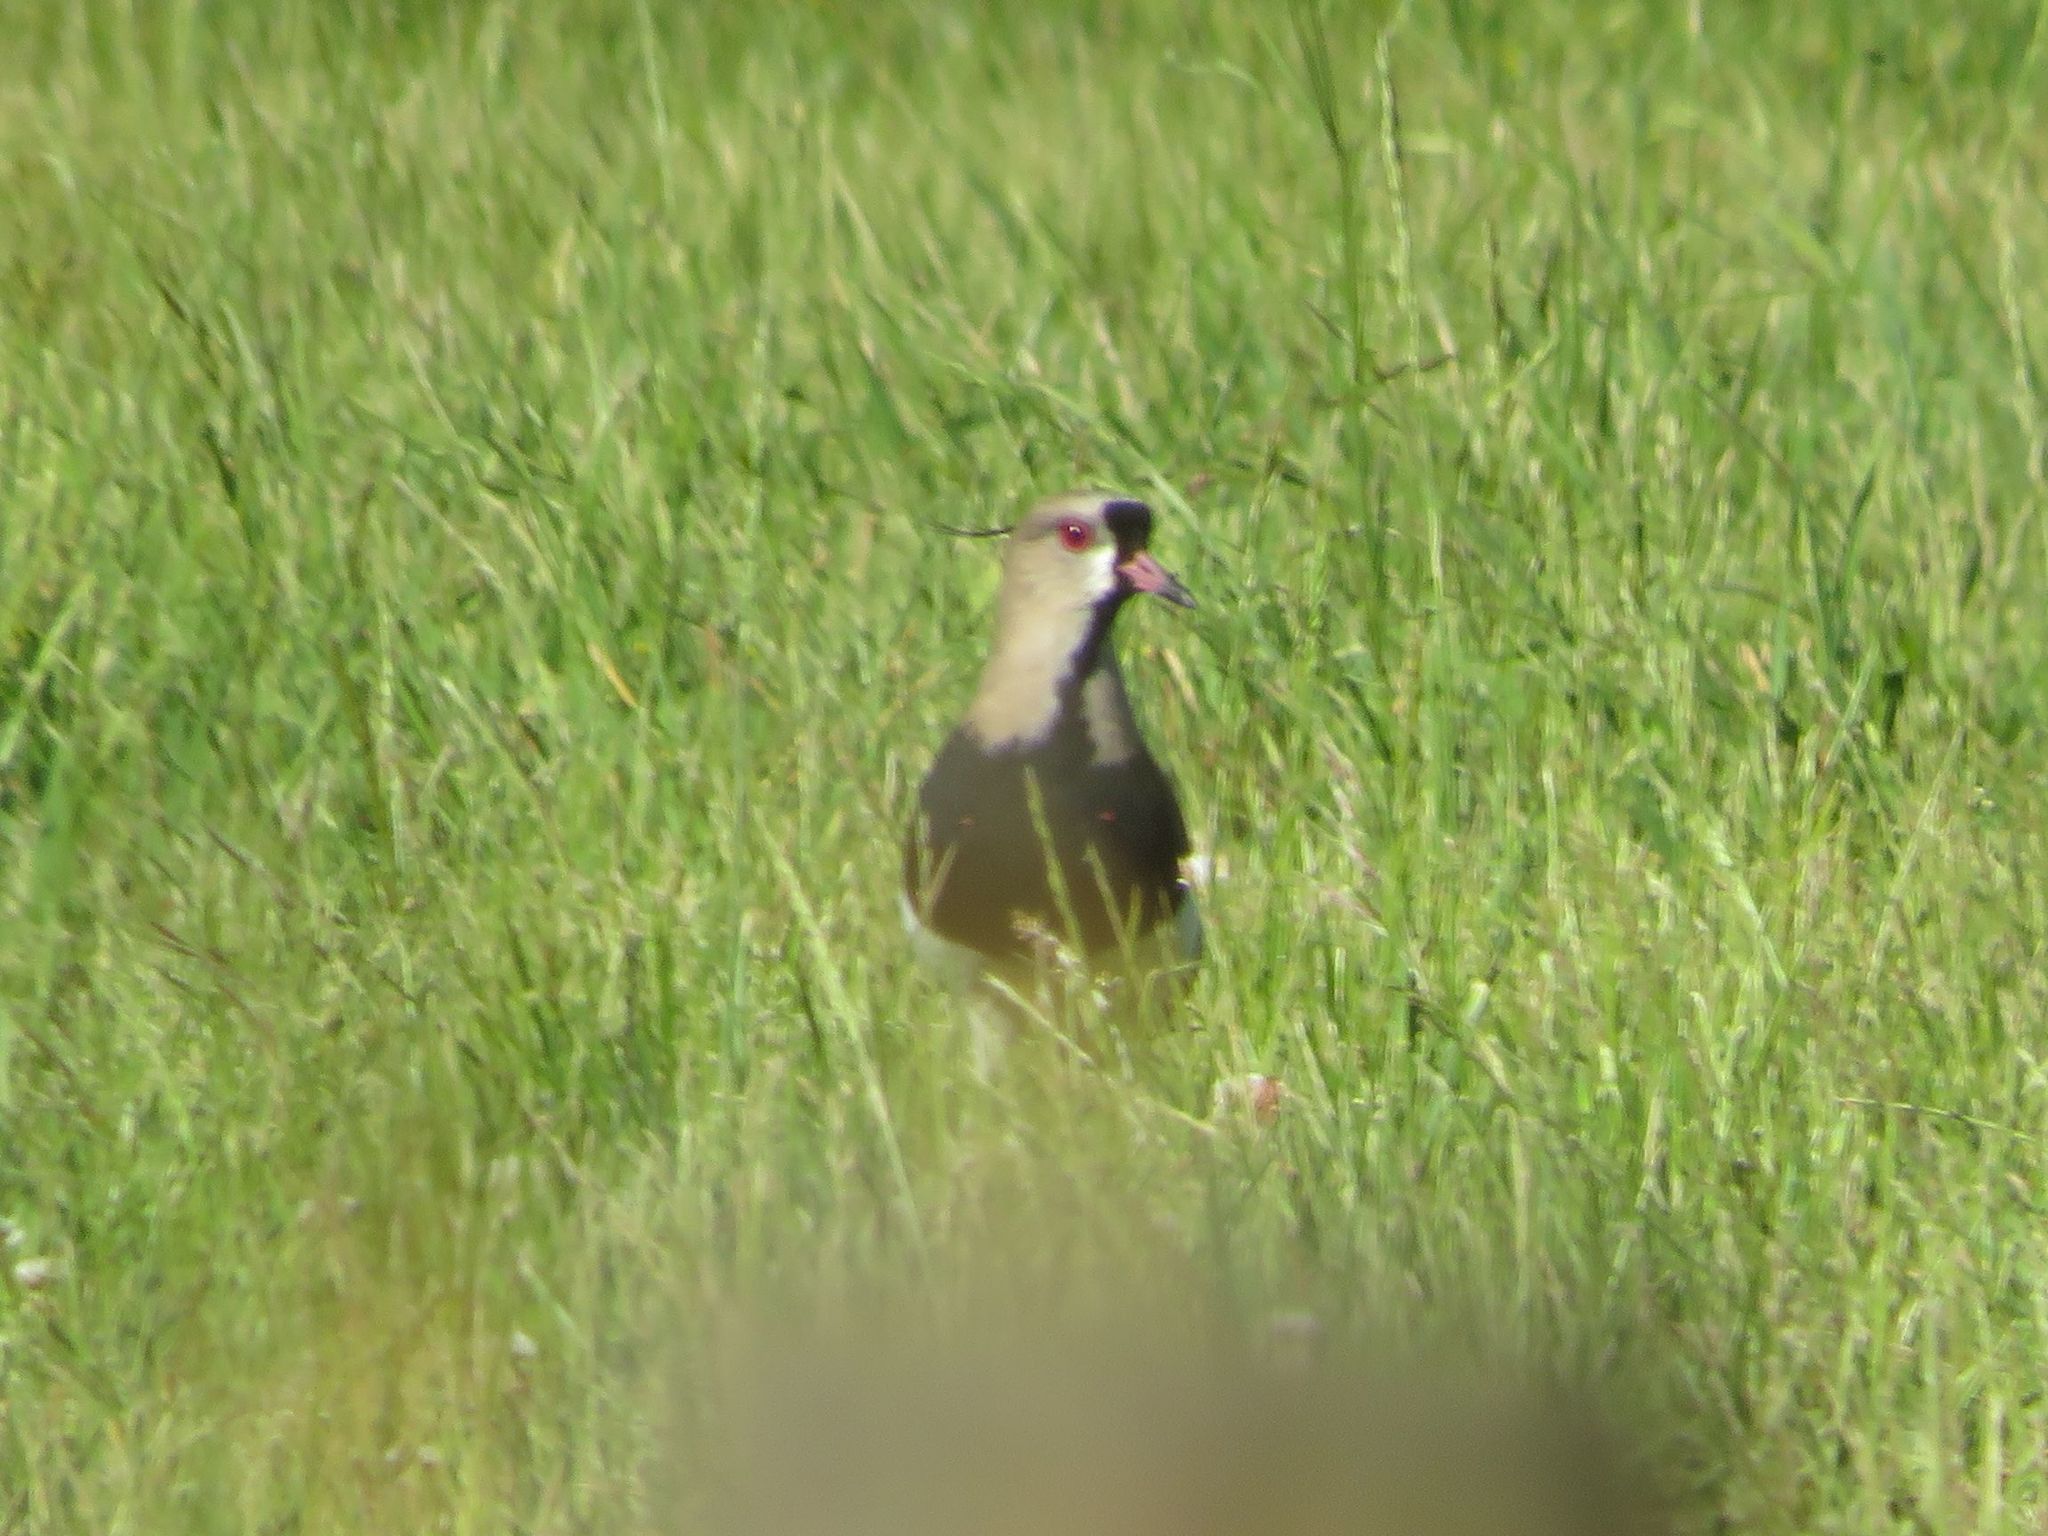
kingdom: Animalia
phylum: Chordata
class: Aves
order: Charadriiformes
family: Charadriidae
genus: Vanellus
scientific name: Vanellus chilensis
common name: Southern lapwing
